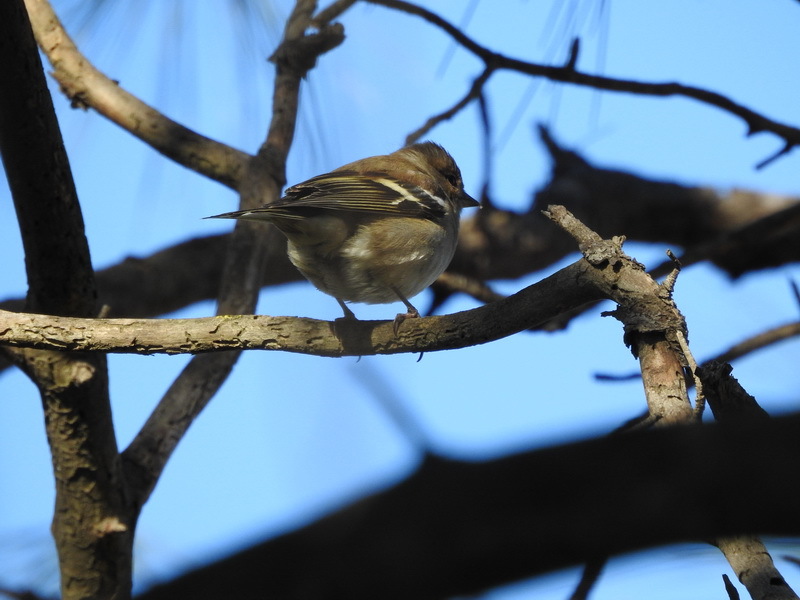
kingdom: Animalia
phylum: Chordata
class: Aves
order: Passeriformes
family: Fringillidae
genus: Fringilla
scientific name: Fringilla coelebs
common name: Common chaffinch
